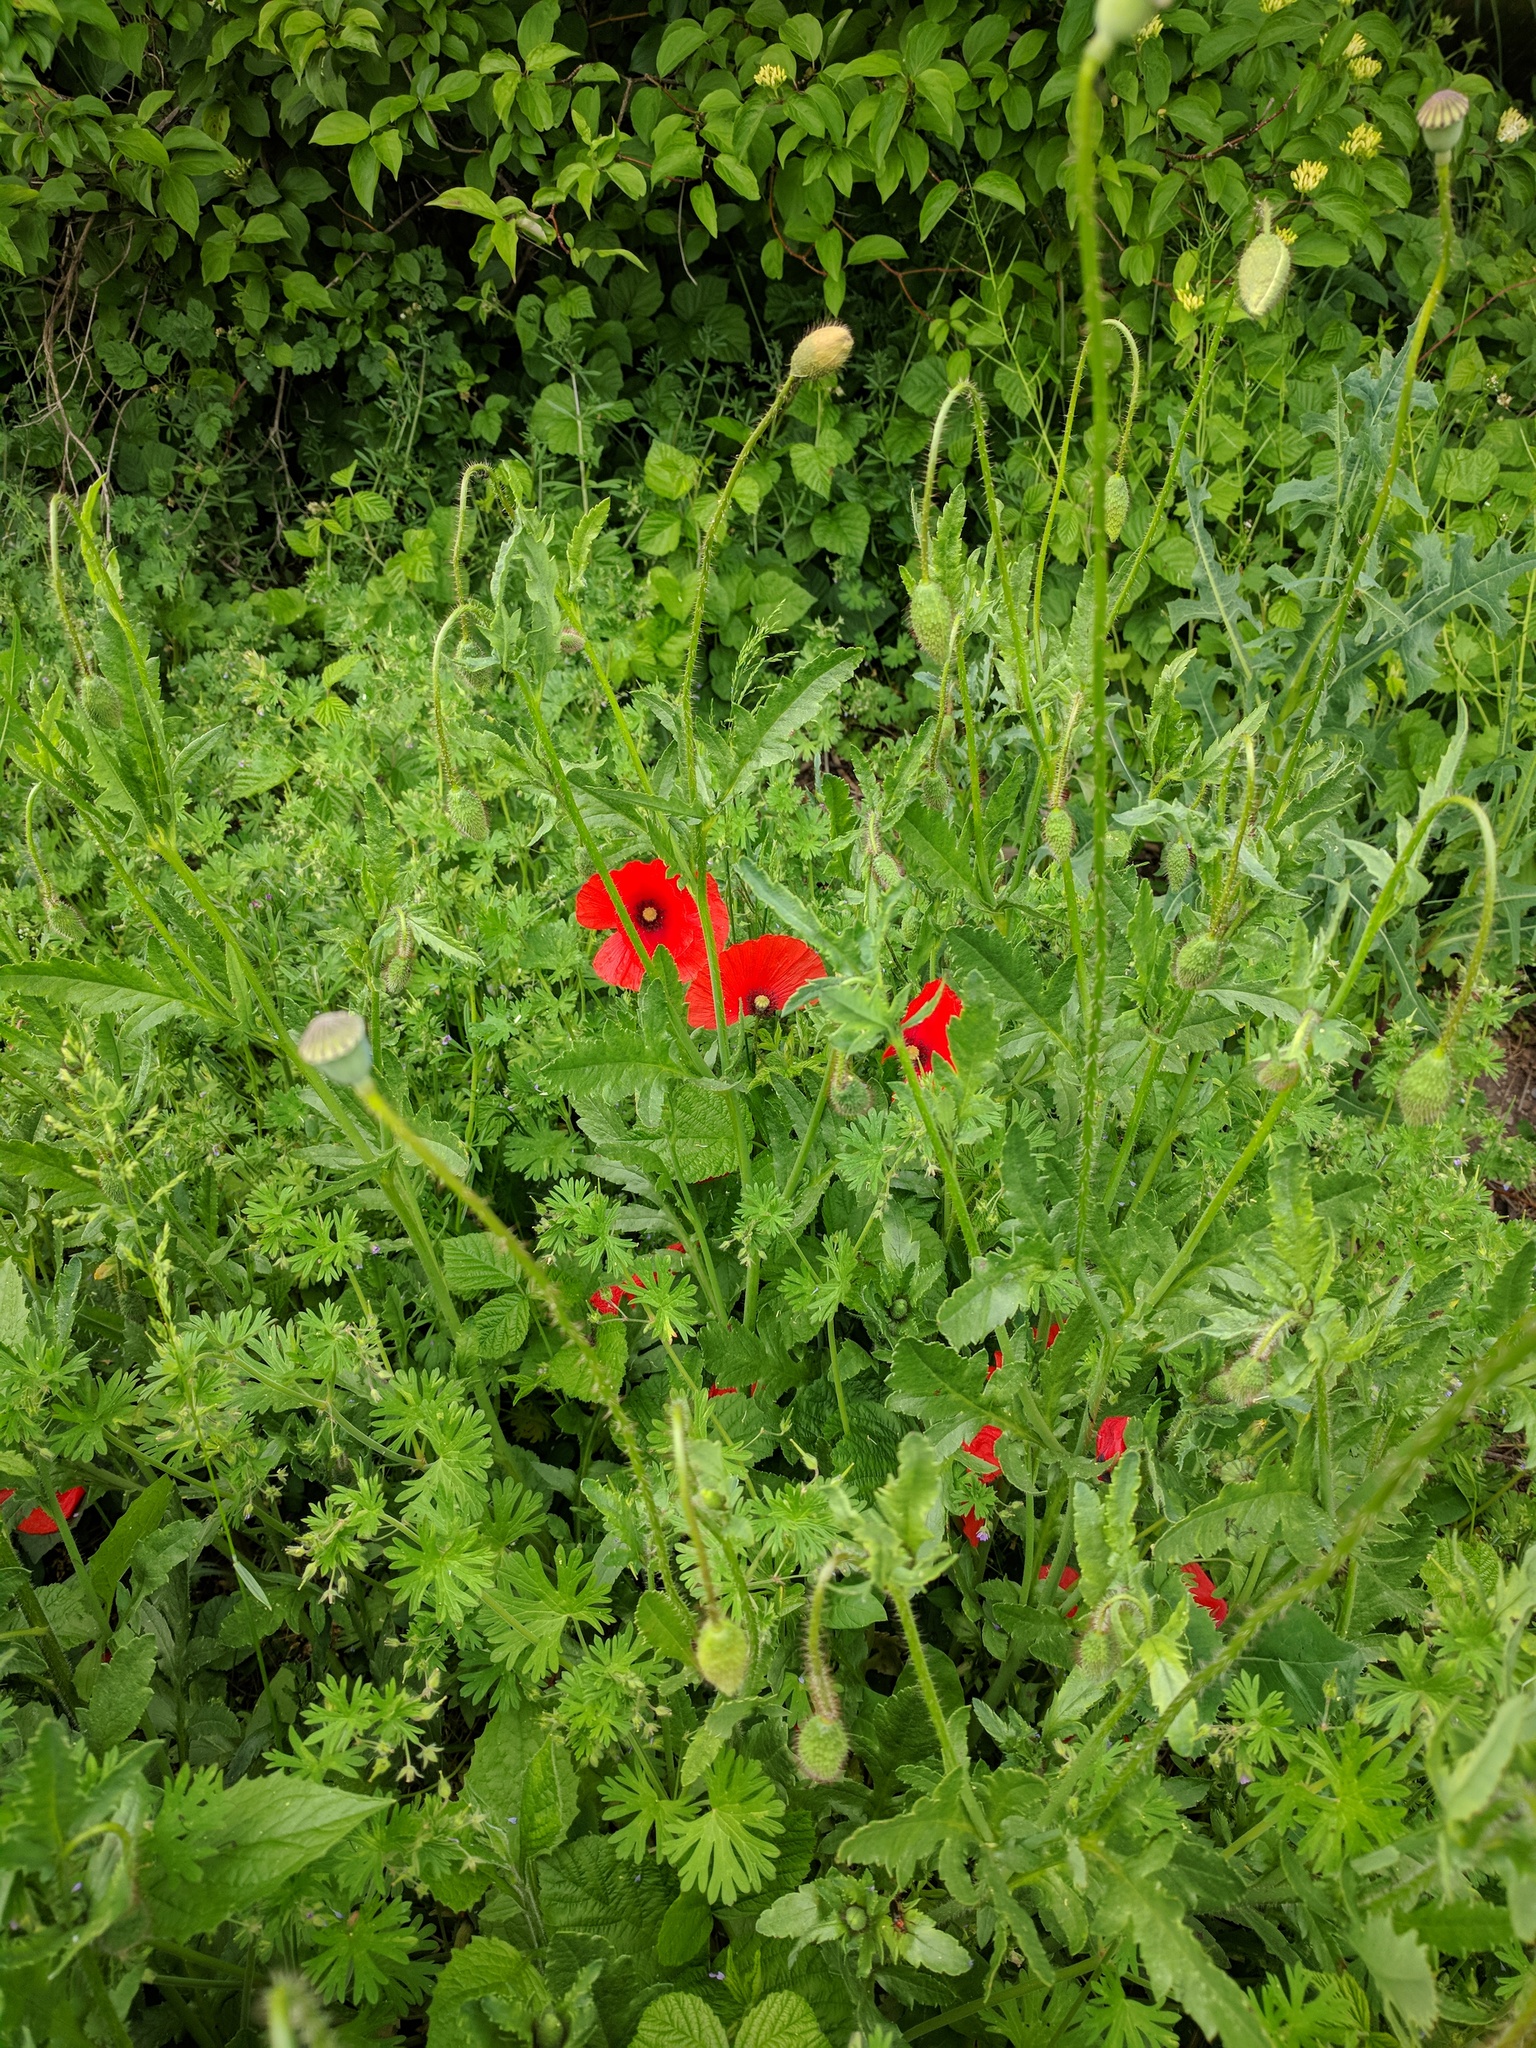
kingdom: Plantae
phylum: Tracheophyta
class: Magnoliopsida
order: Ranunculales
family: Papaveraceae
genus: Papaver
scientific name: Papaver rhoeas
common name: Corn poppy
